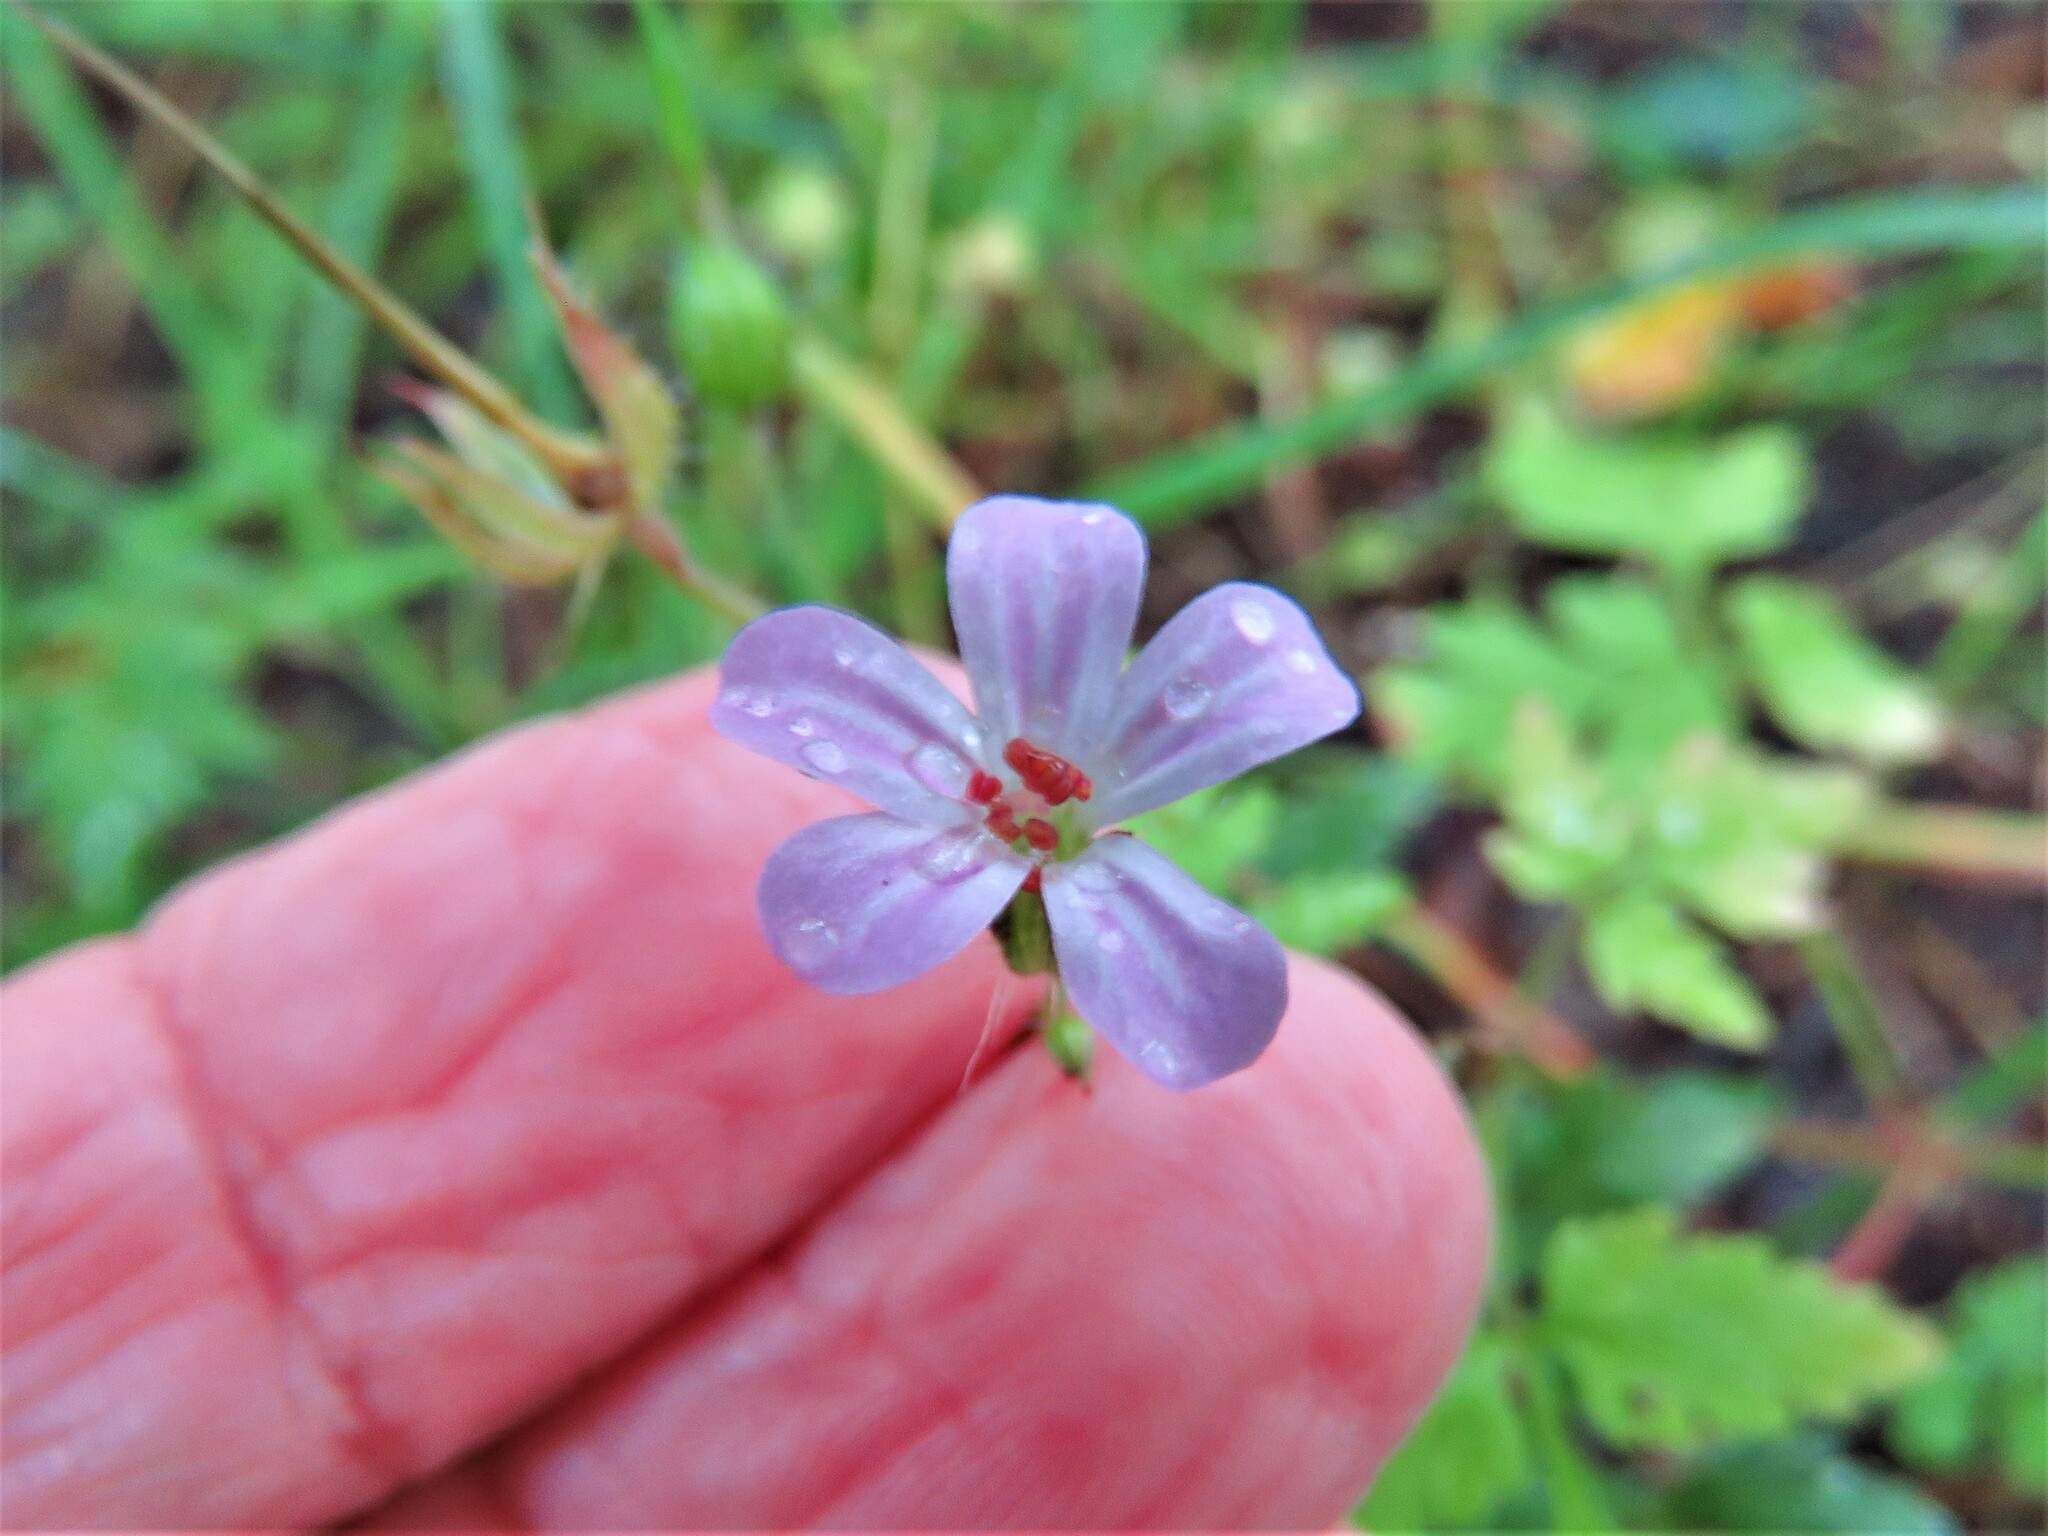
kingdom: Plantae
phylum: Tracheophyta
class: Magnoliopsida
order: Geraniales
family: Geraniaceae
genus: Geranium
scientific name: Geranium robertianum
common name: Herb-robert
